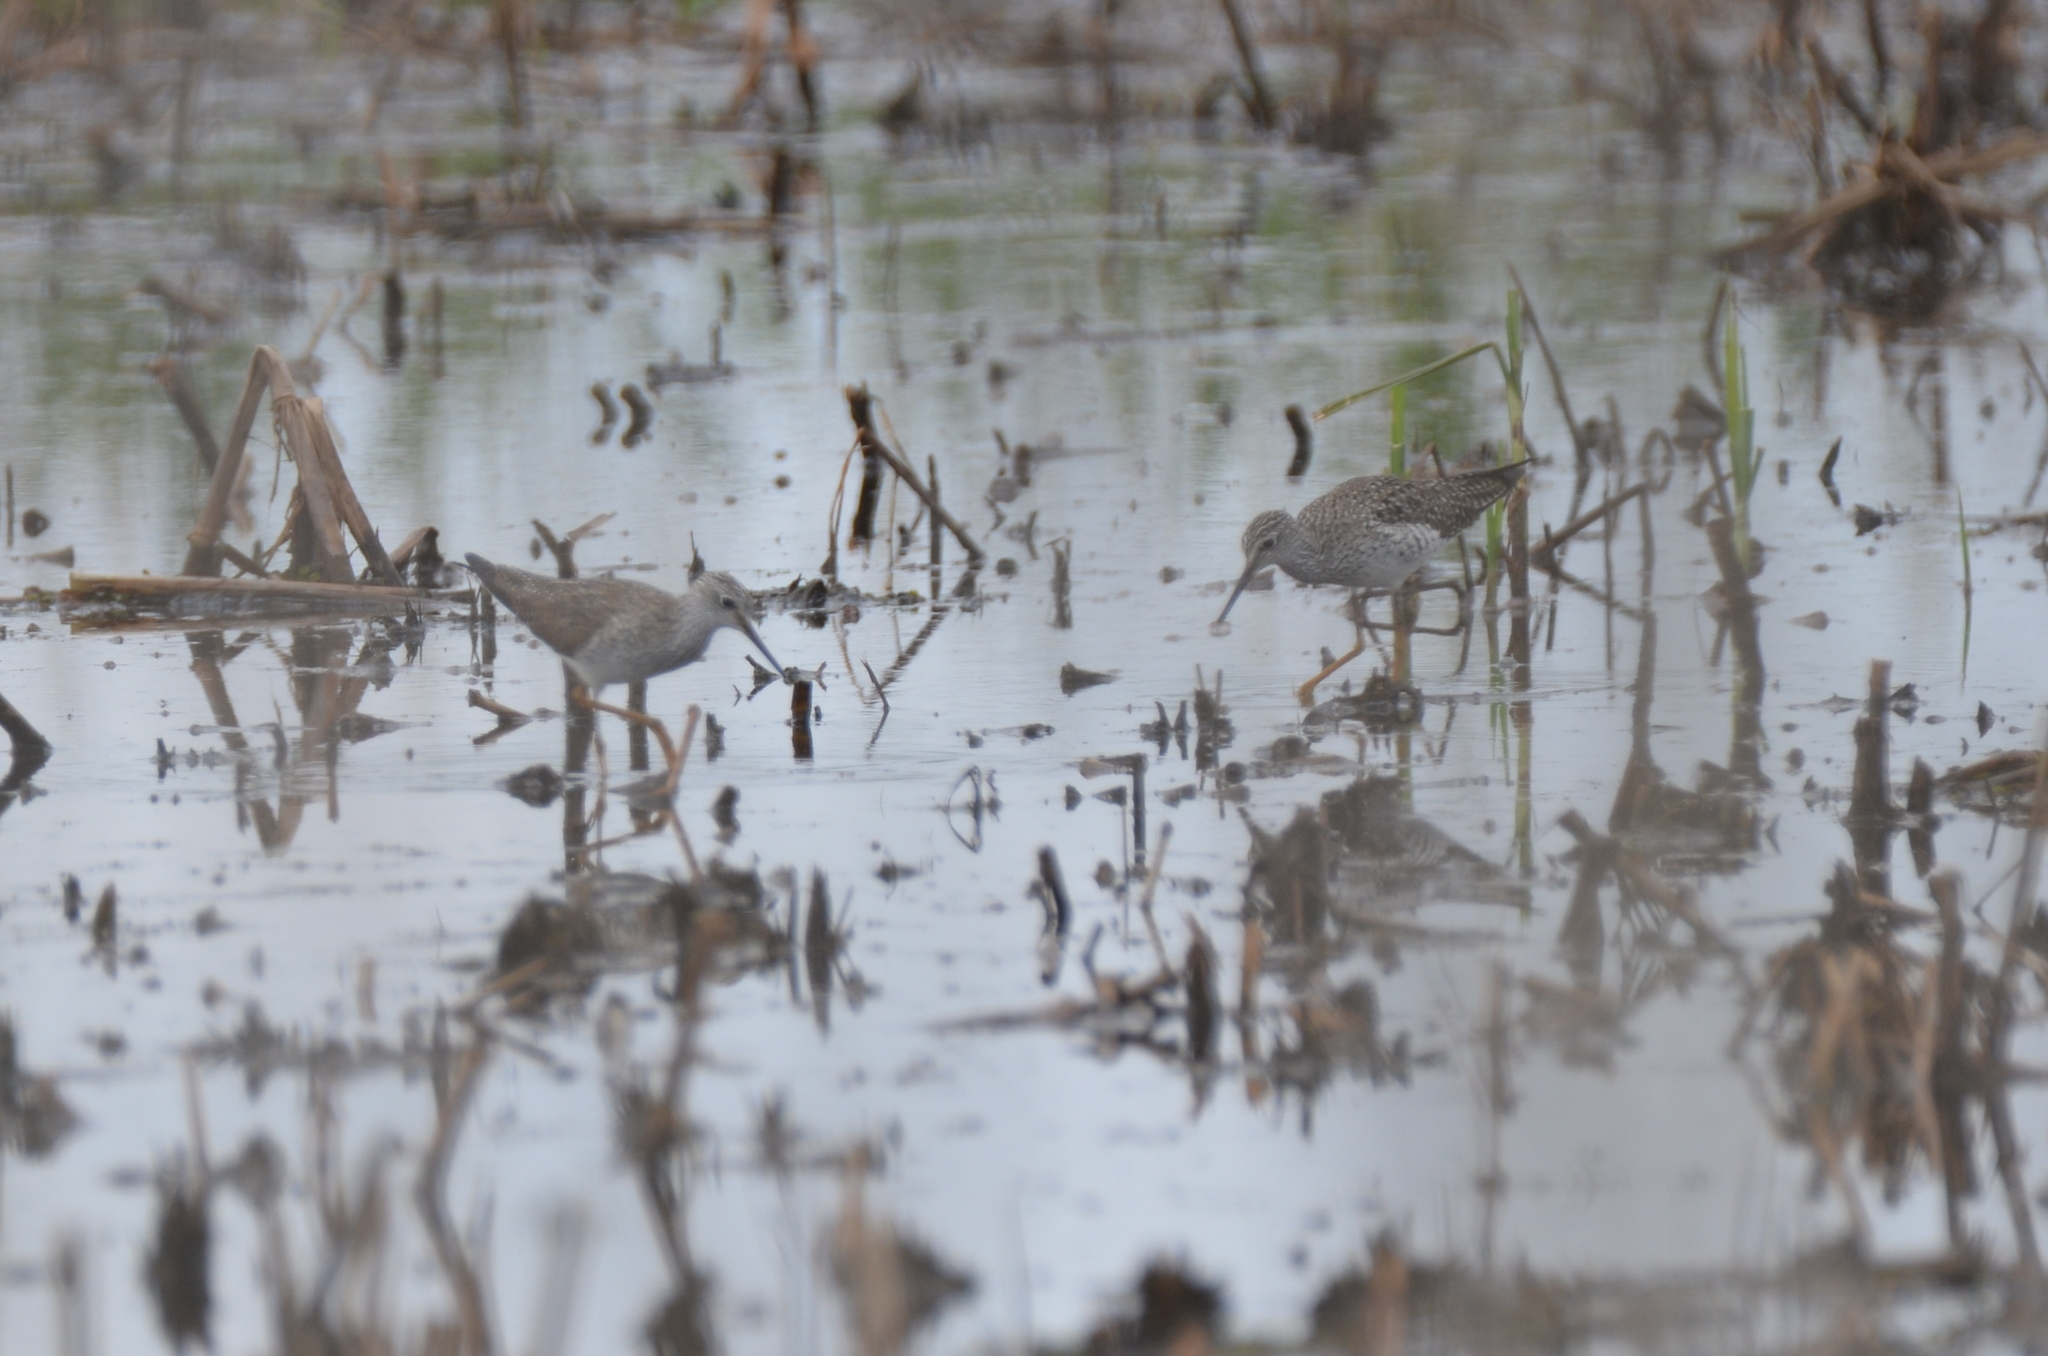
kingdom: Animalia
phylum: Chordata
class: Aves
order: Charadriiformes
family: Scolopacidae
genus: Tringa
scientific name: Tringa flavipes
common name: Lesser yellowlegs
